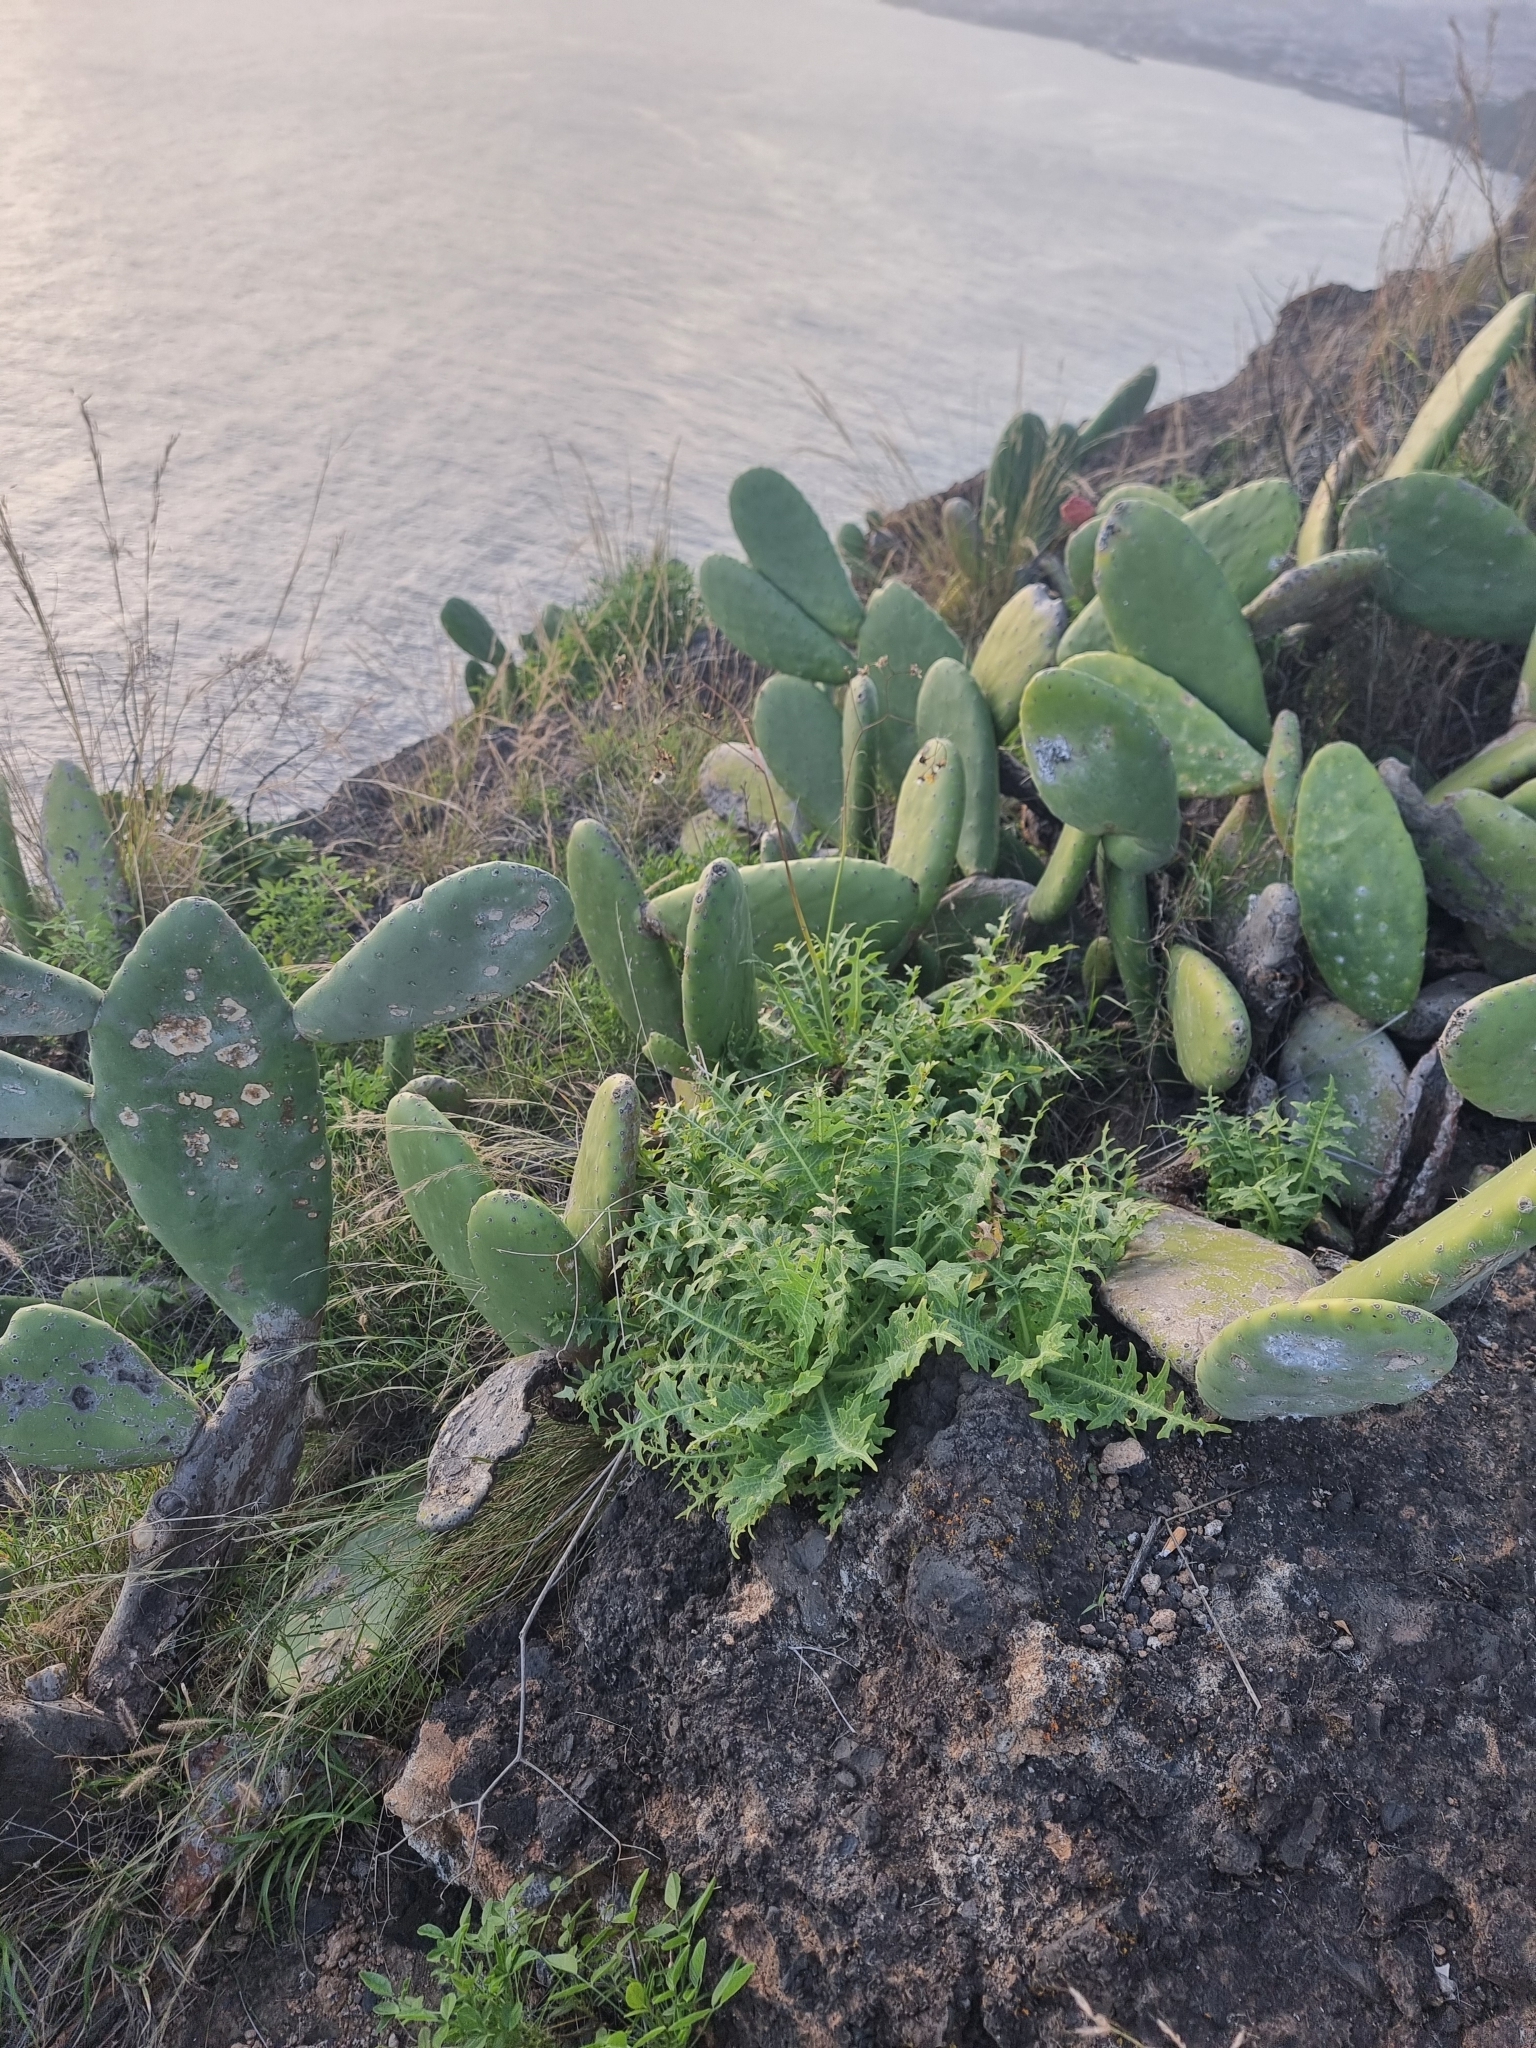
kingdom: Plantae
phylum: Tracheophyta
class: Magnoliopsida
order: Asterales
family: Asteraceae
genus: Sonchus
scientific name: Sonchus ustulatus
